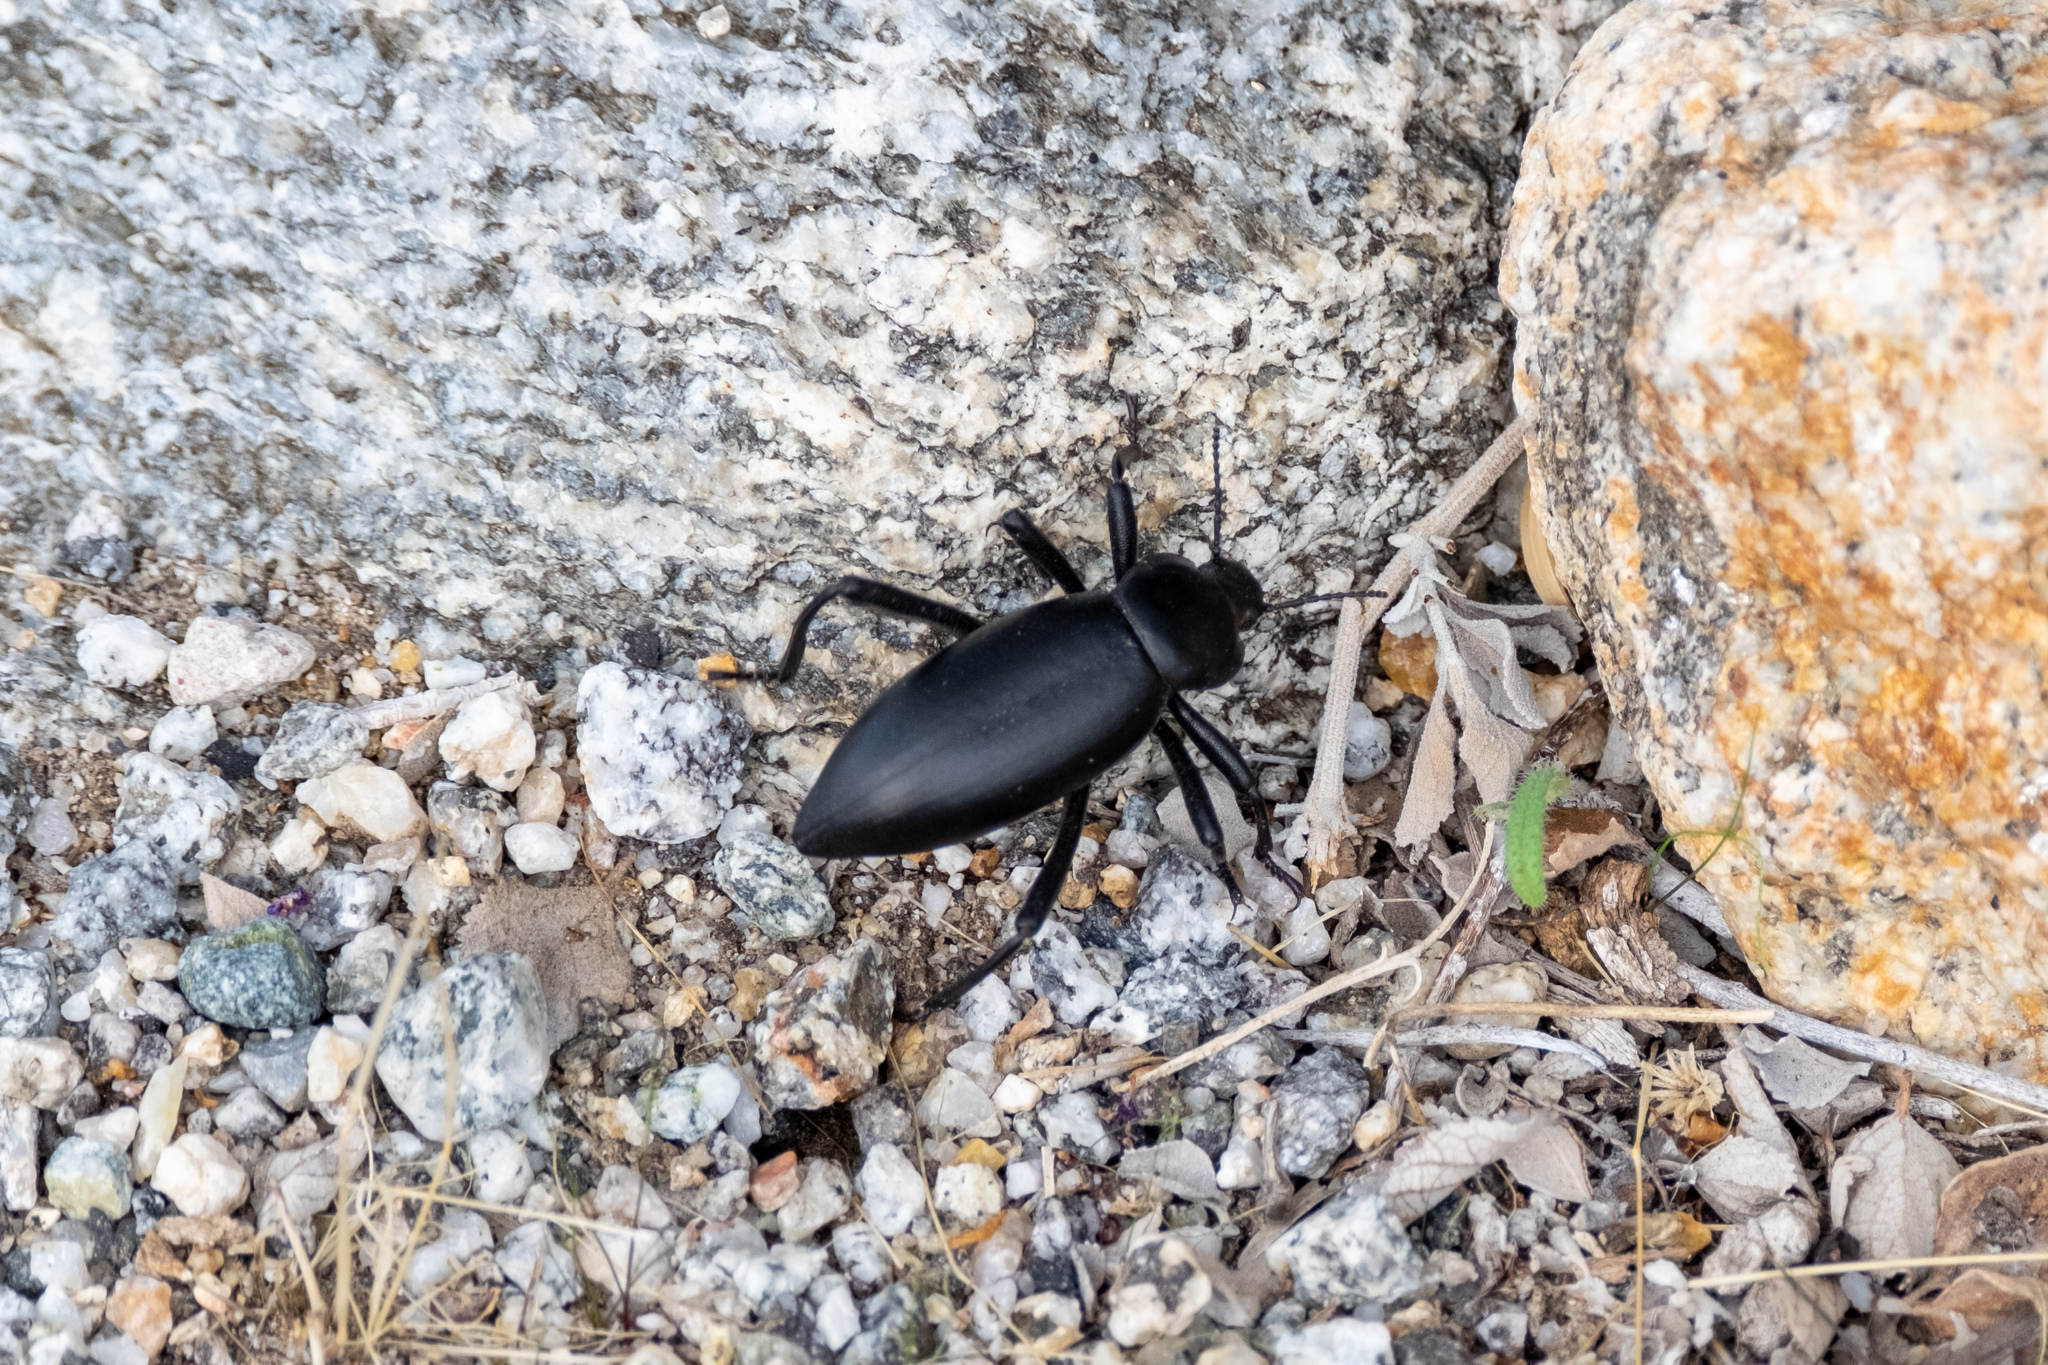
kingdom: Animalia
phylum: Arthropoda
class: Insecta
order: Coleoptera
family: Tenebrionidae
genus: Eleodes
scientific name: Eleodes armata
